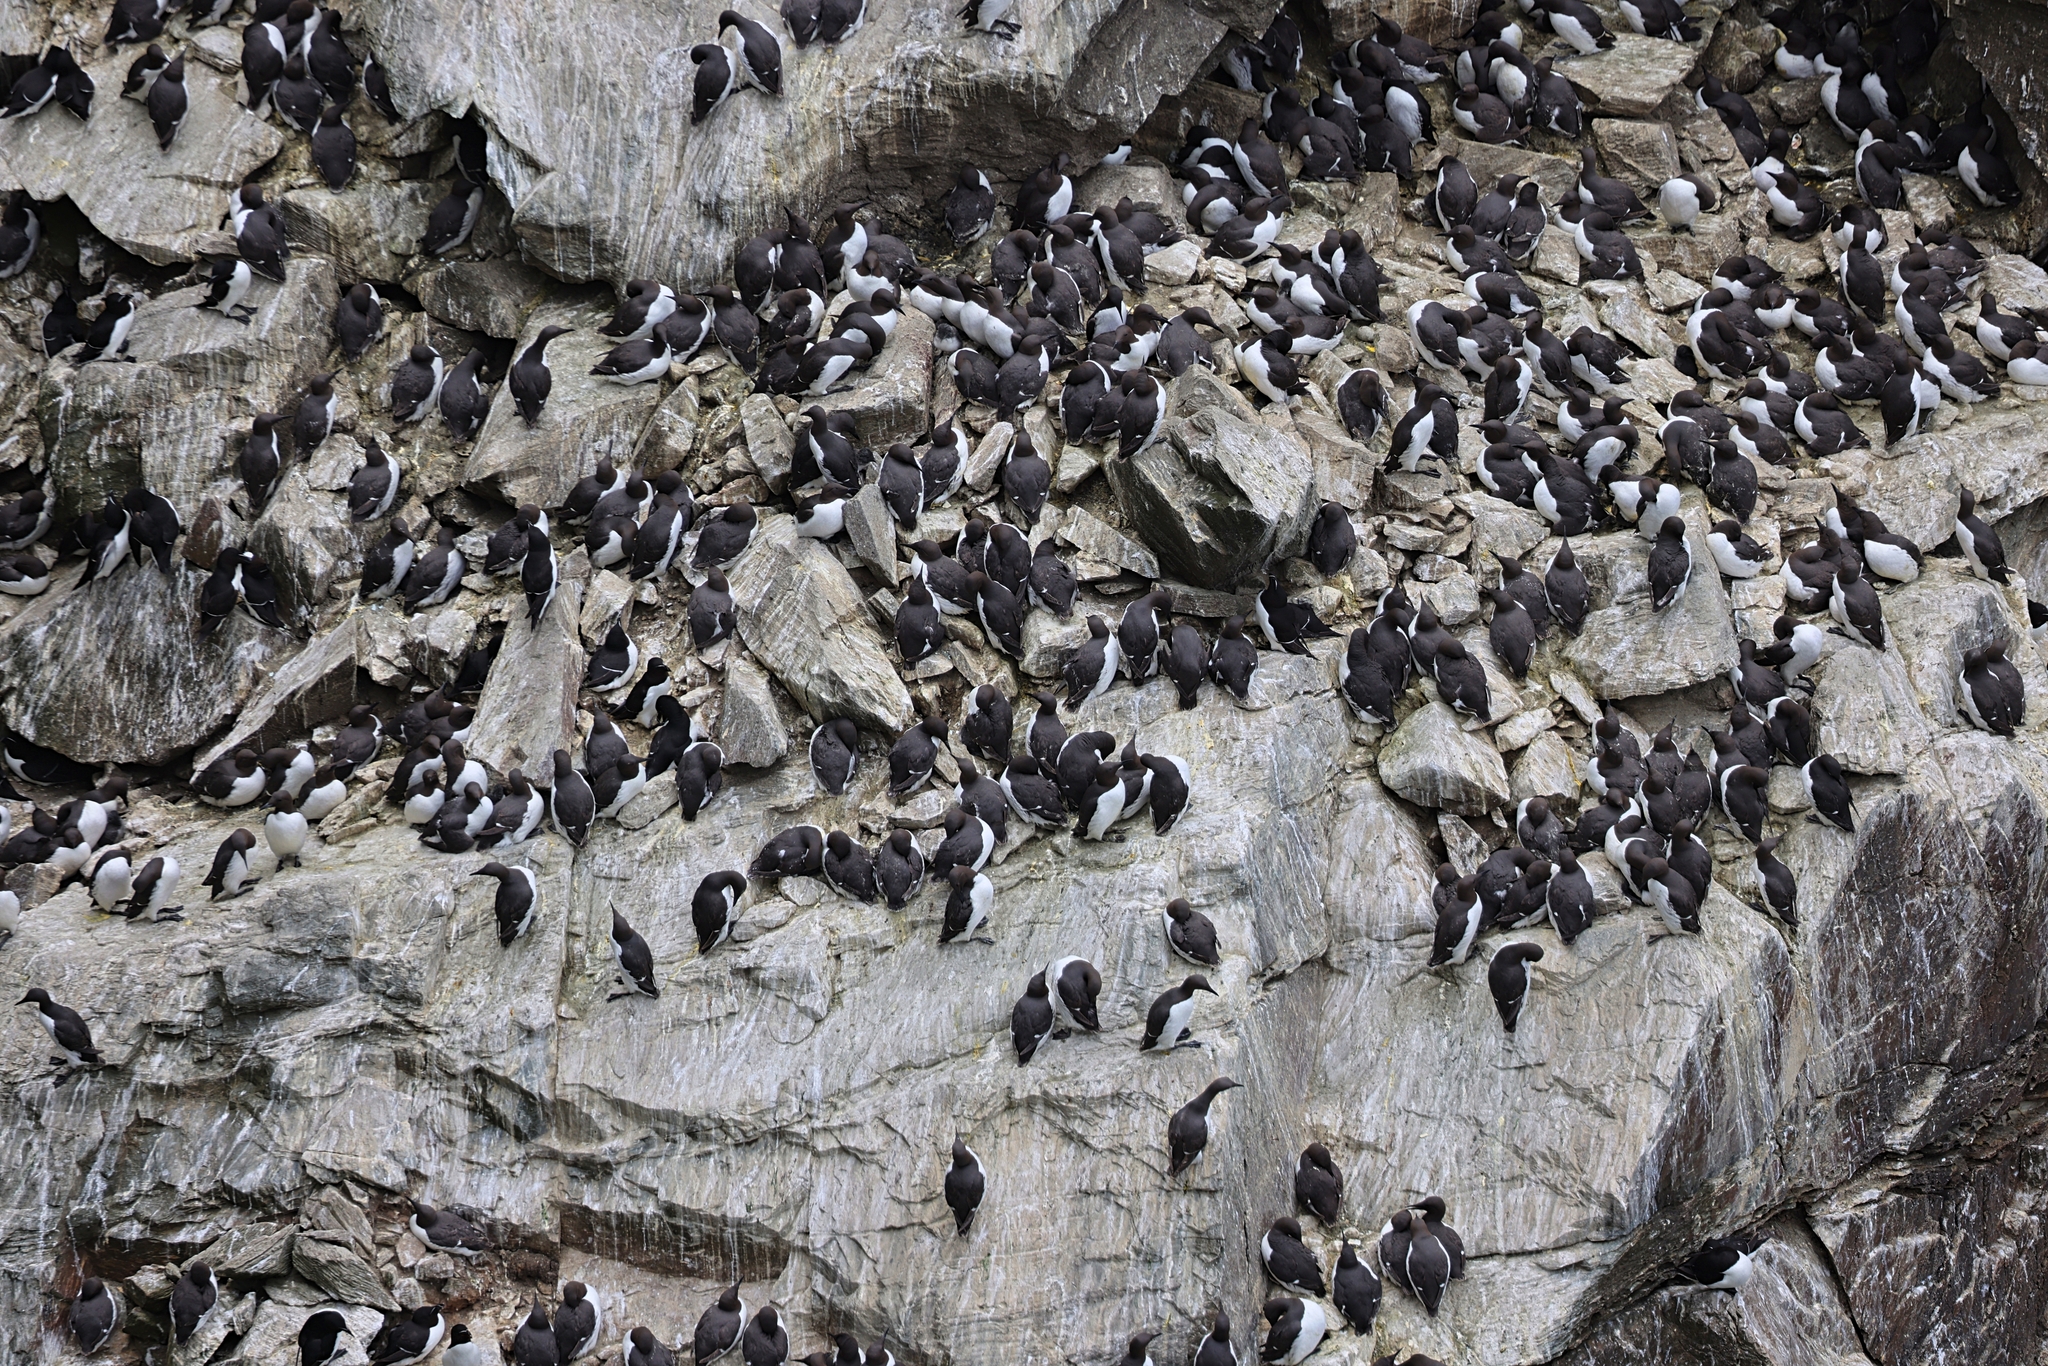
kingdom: Animalia
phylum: Chordata
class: Aves
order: Charadriiformes
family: Alcidae
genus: Uria
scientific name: Uria aalge
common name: Common murre
